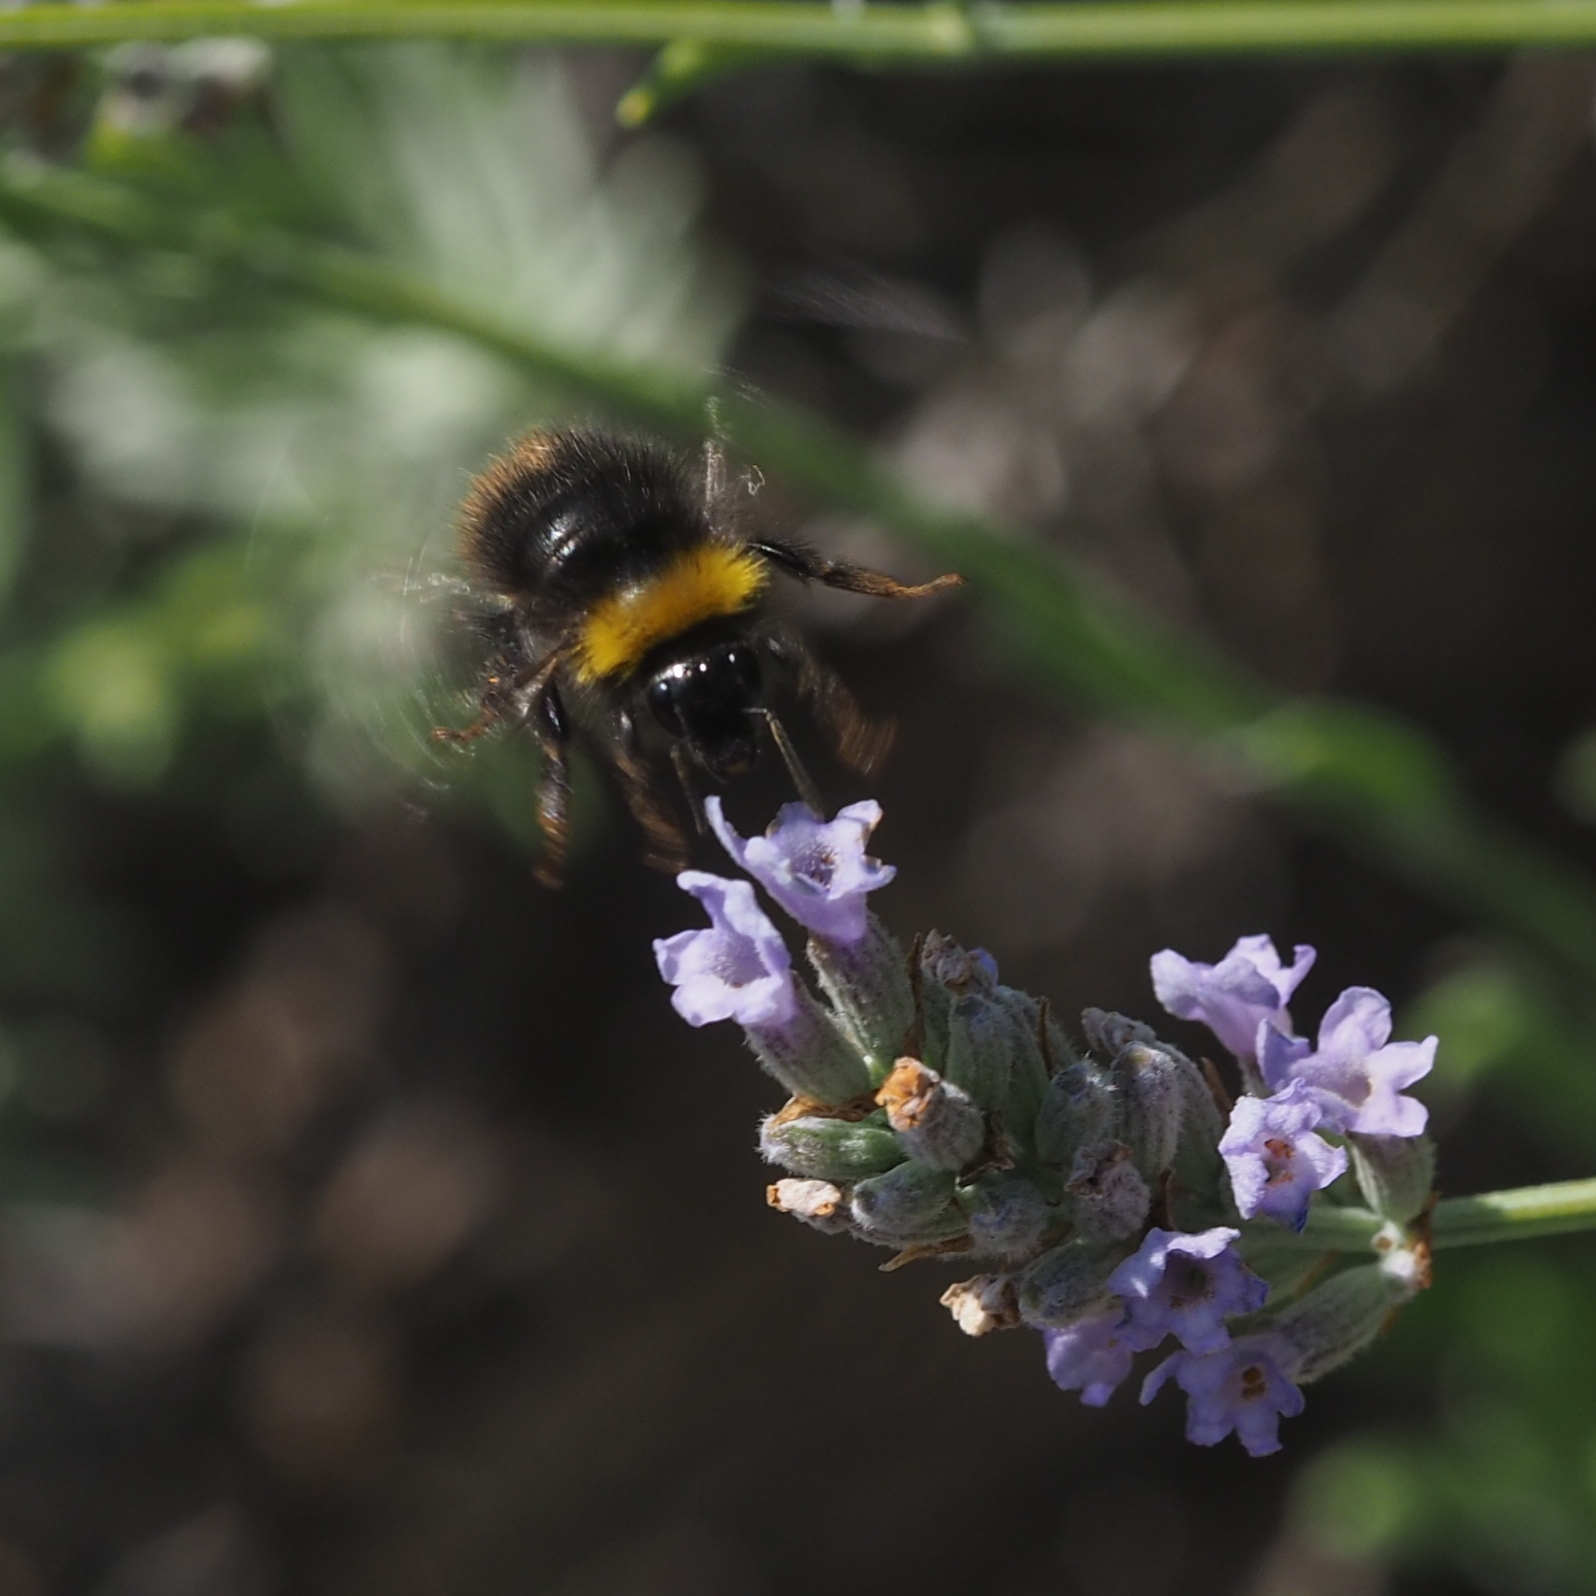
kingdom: Animalia
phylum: Arthropoda
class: Insecta
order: Hymenoptera
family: Apidae
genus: Bombus
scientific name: Bombus pratorum
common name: Early humble-bee
